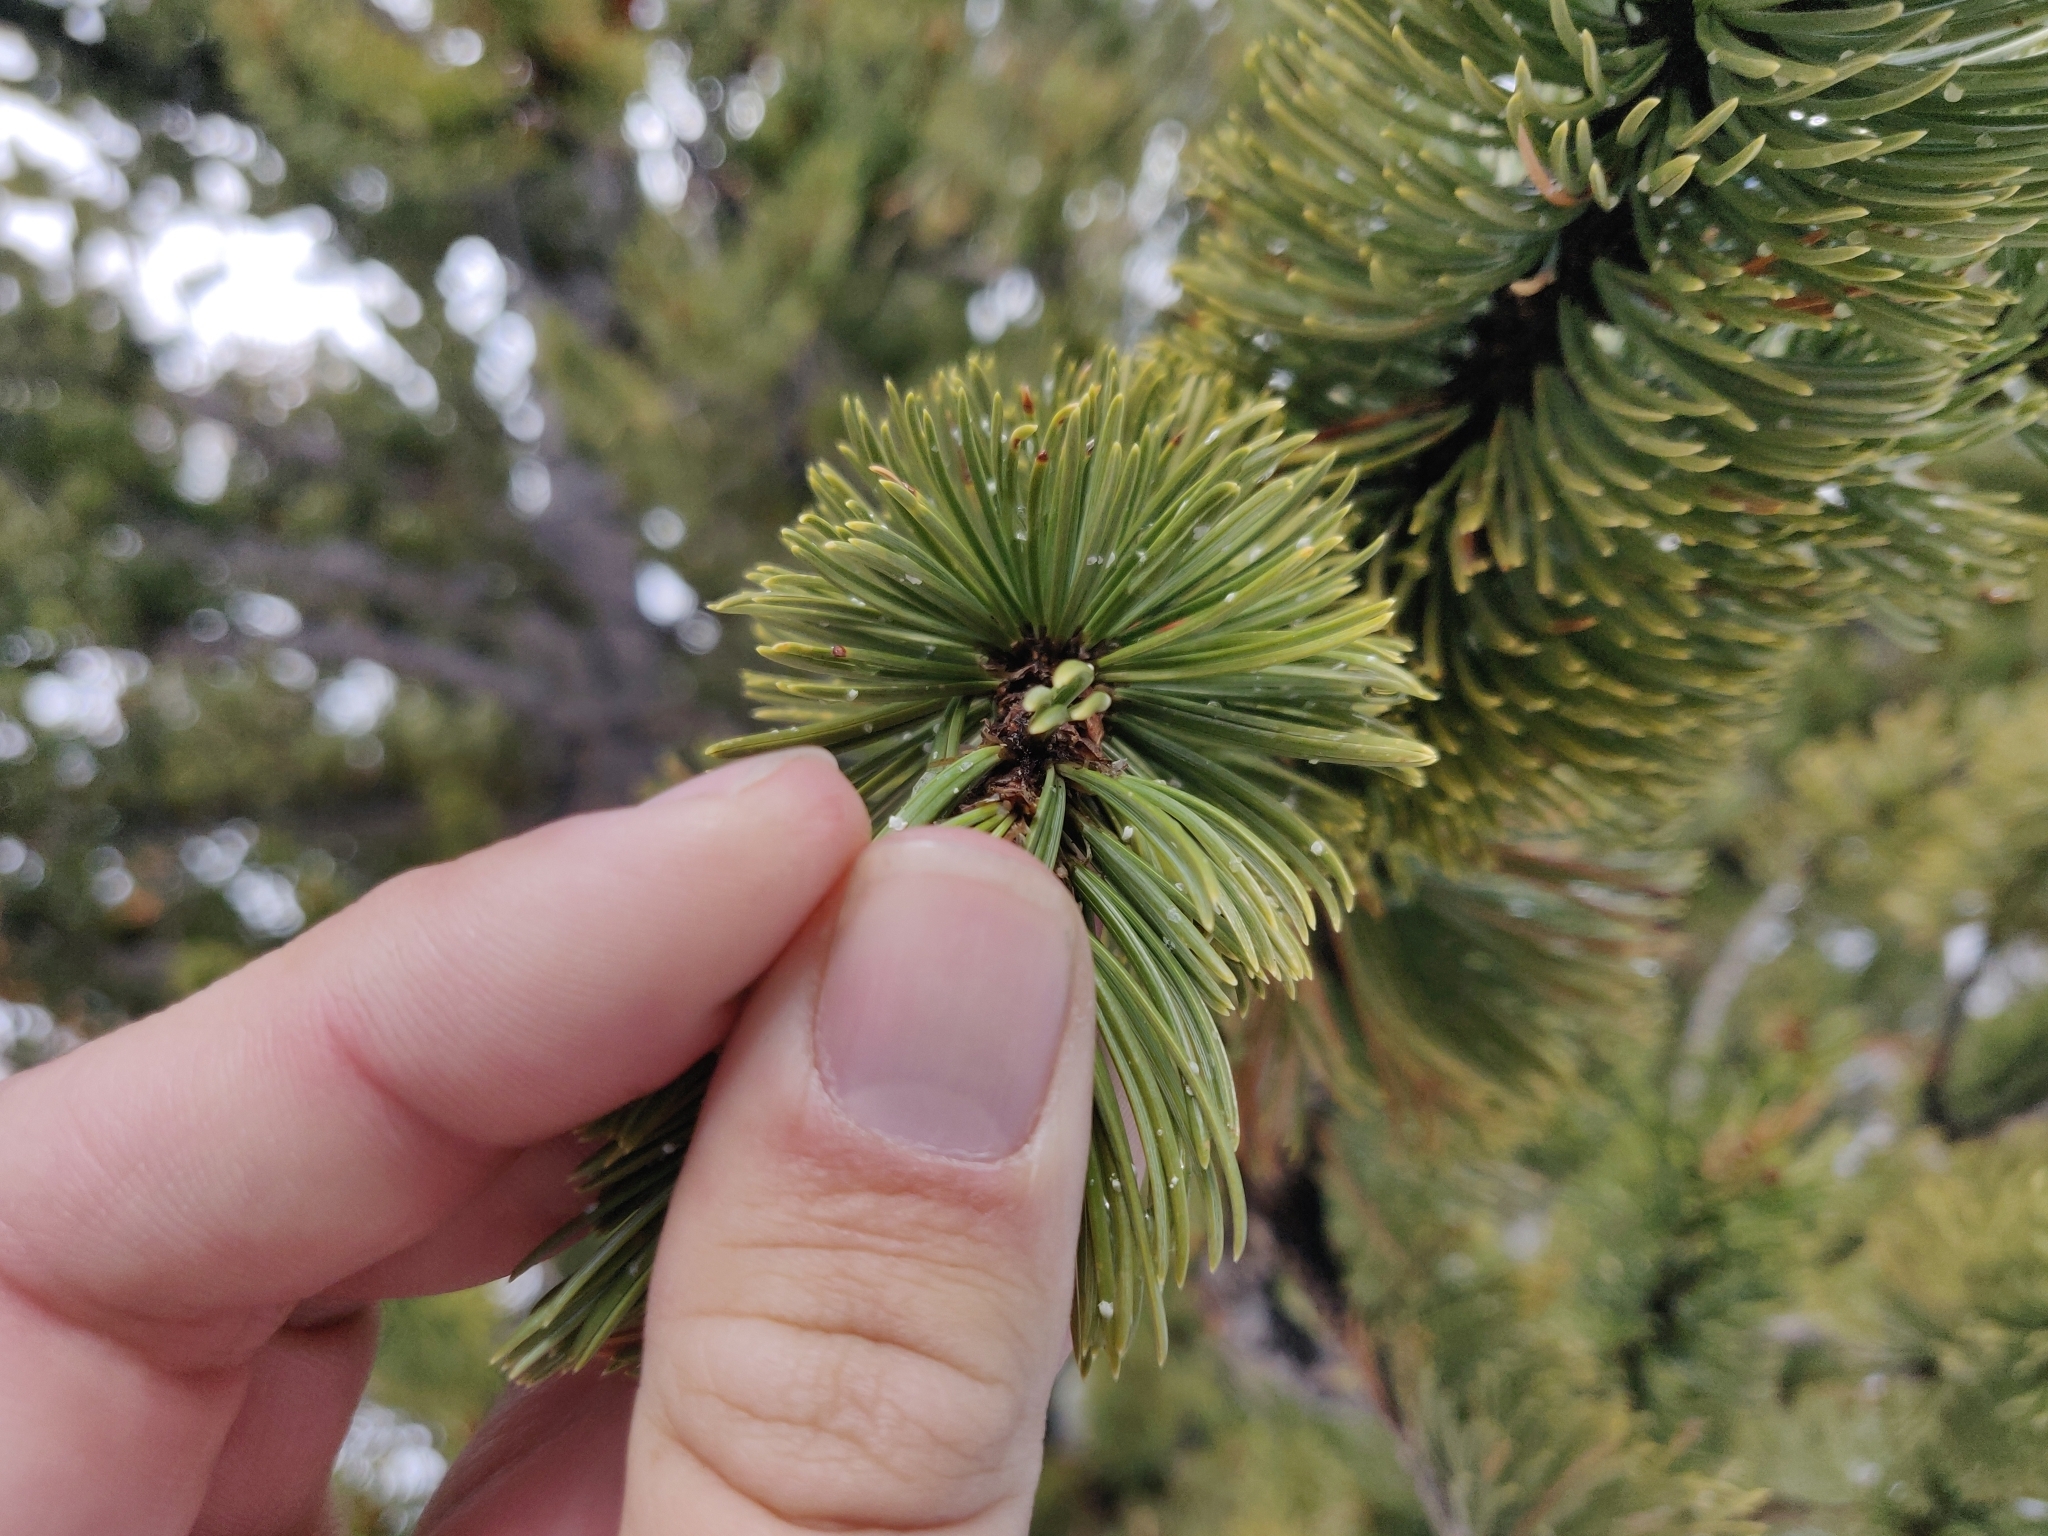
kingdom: Plantae
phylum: Tracheophyta
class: Pinopsida
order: Pinales
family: Pinaceae
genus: Pinus
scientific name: Pinus flexilis
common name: Limber pine
